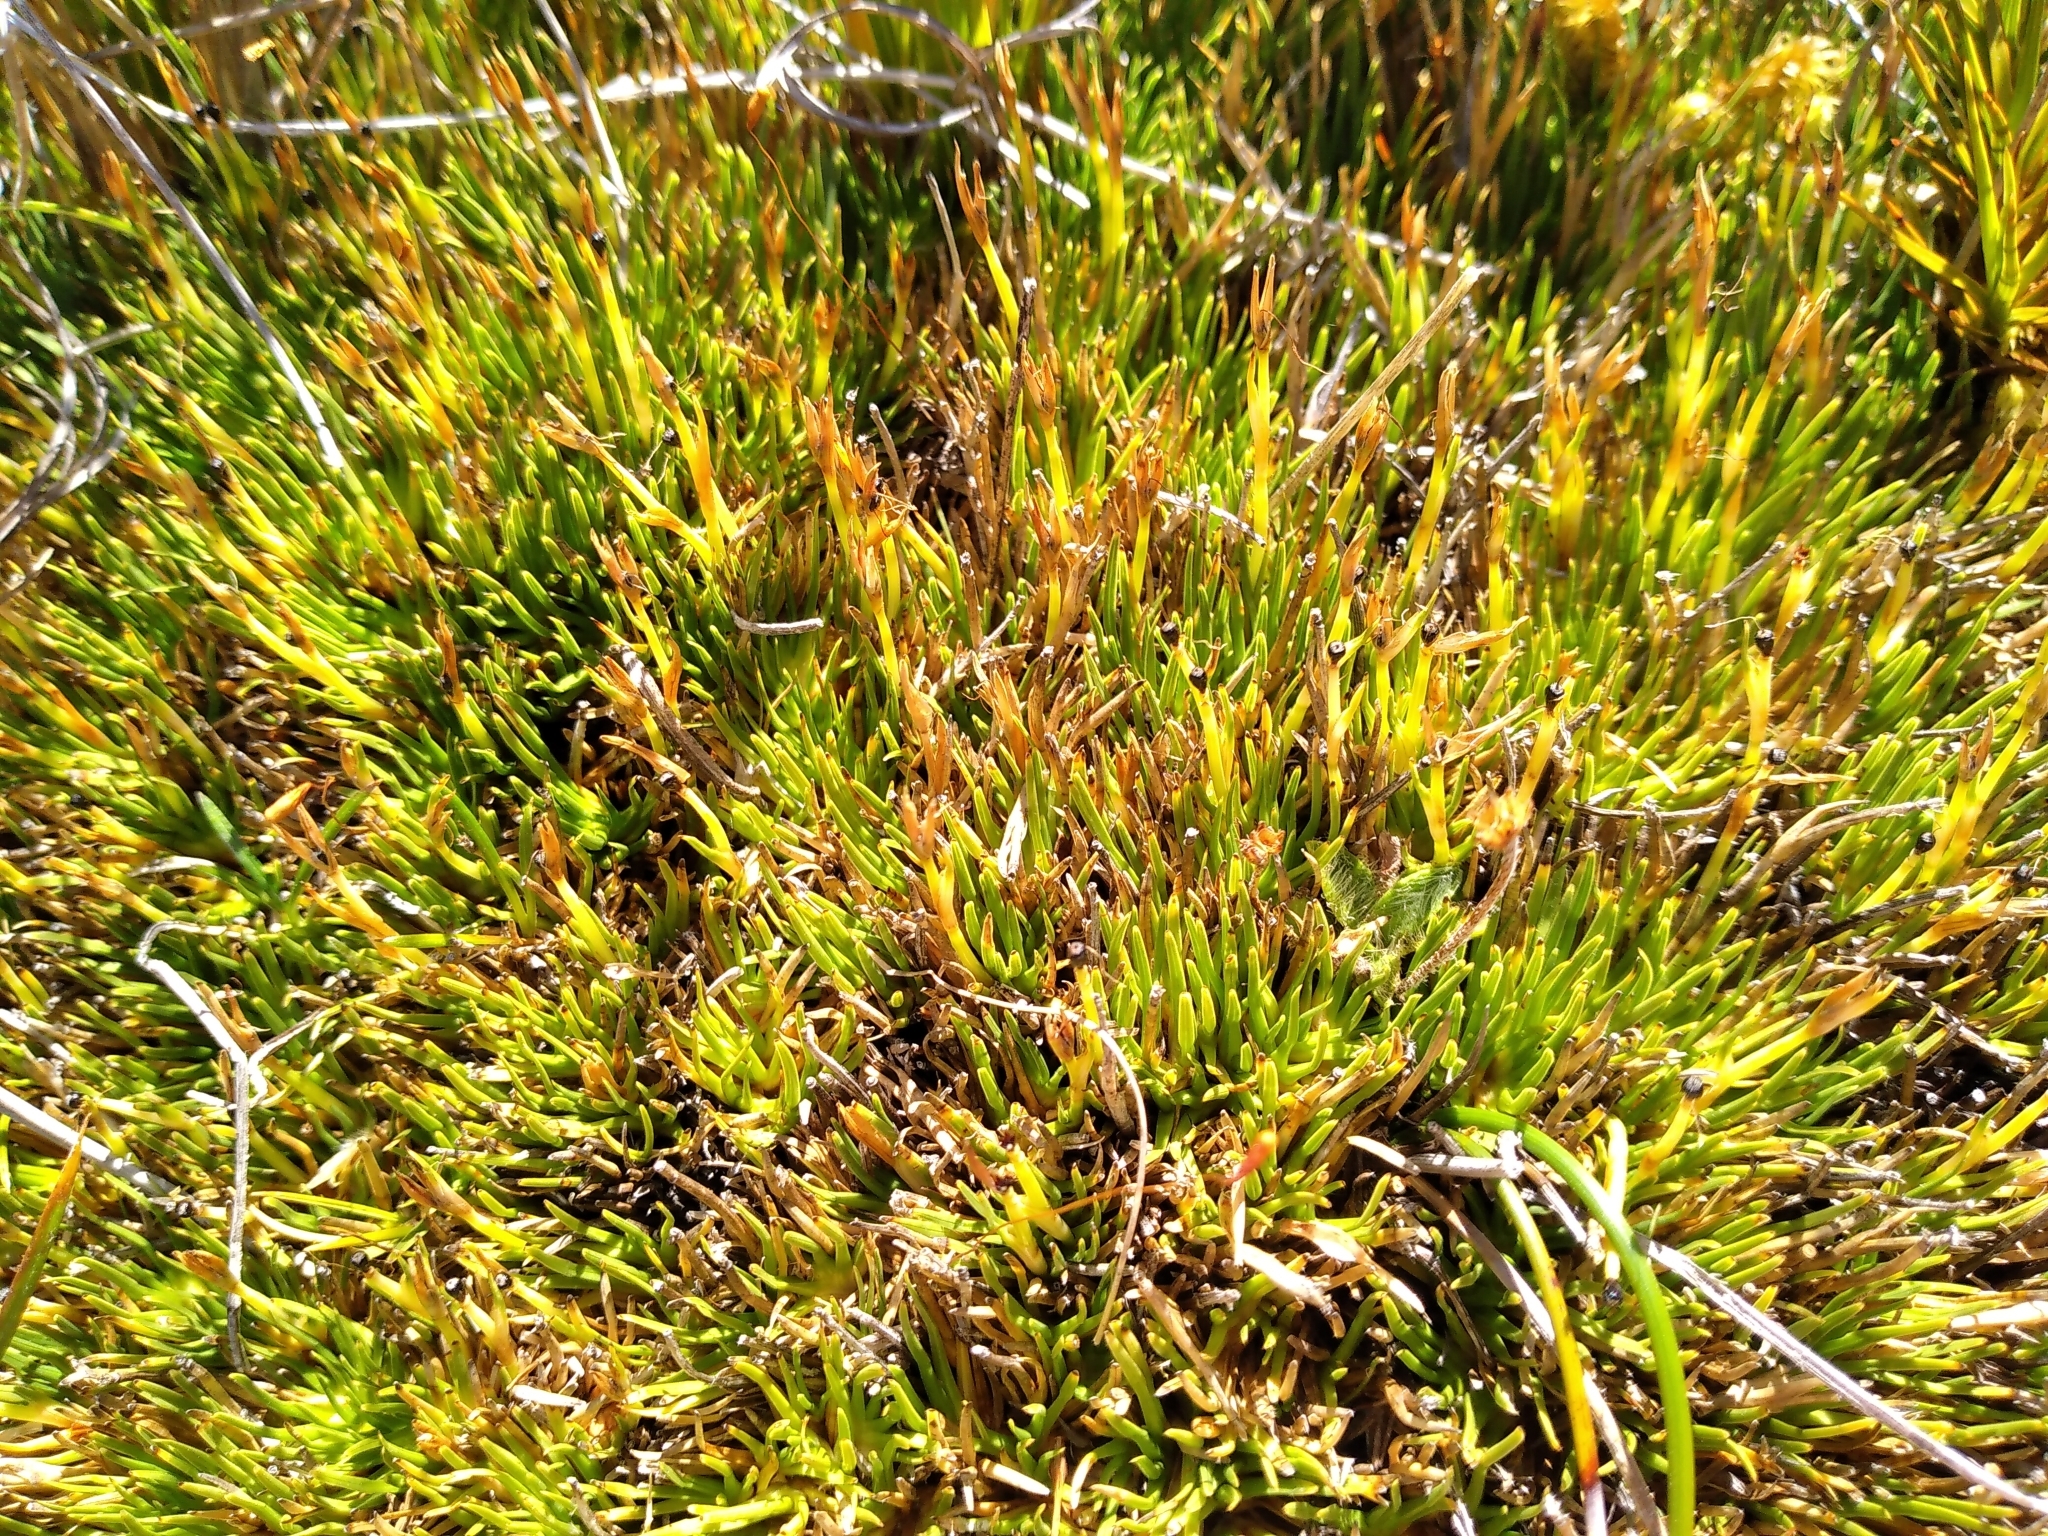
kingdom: Plantae
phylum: Tracheophyta
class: Liliopsida
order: Poales
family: Cyperaceae
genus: Oreobolus
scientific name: Oreobolus pectinatus
